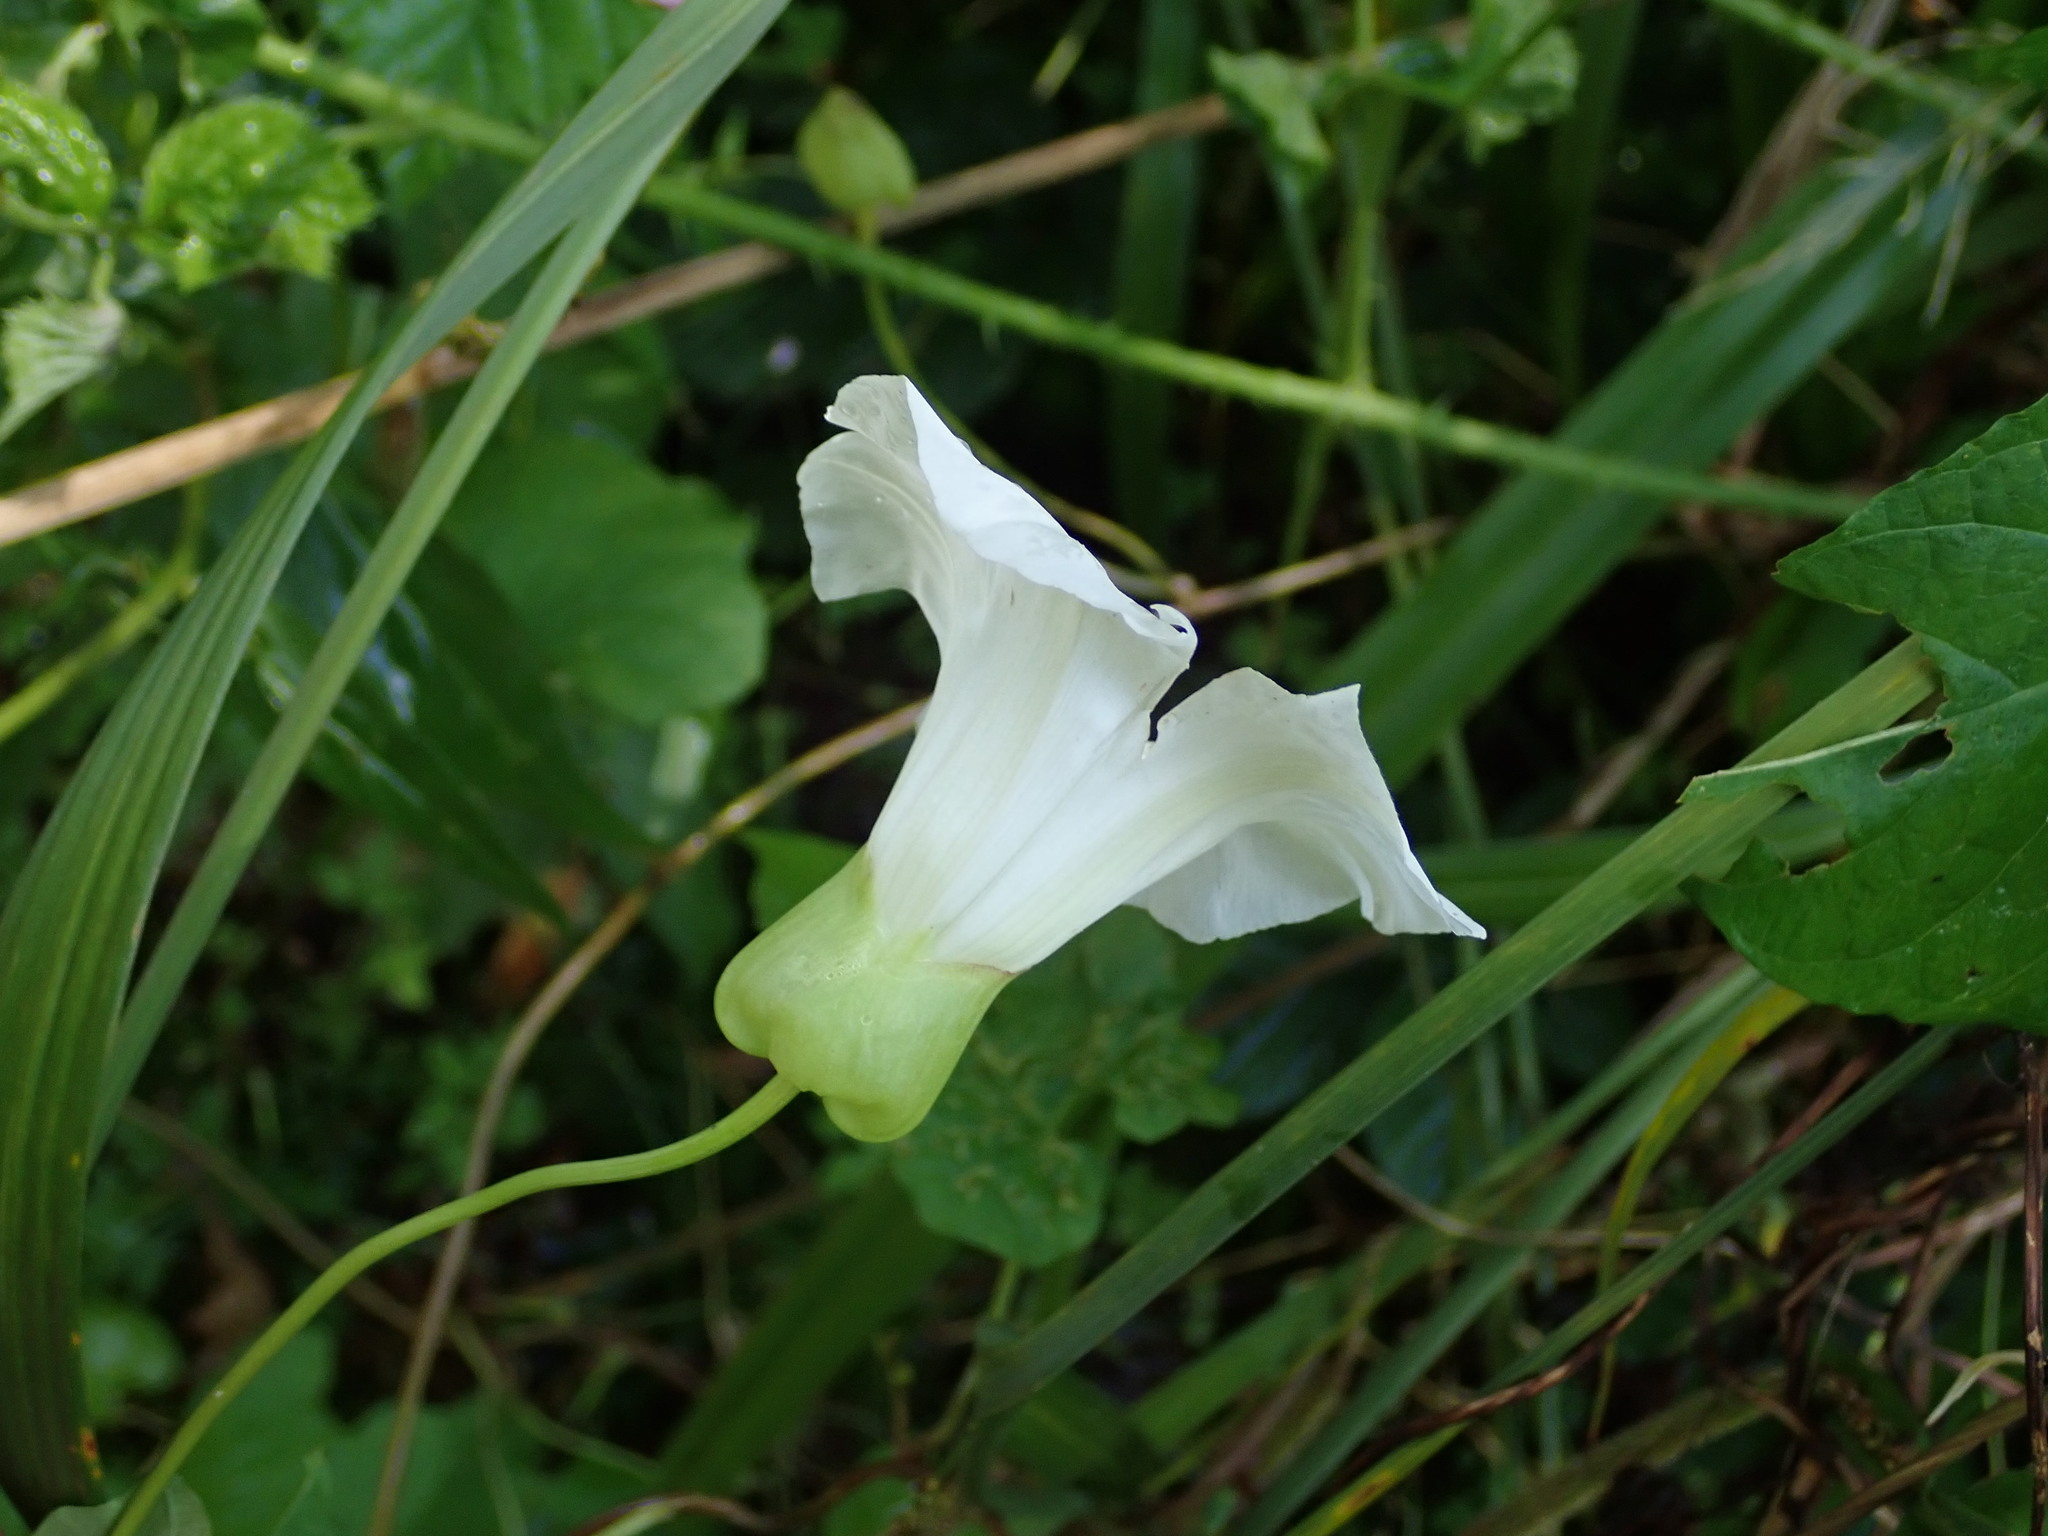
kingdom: Plantae
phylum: Tracheophyta
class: Magnoliopsida
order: Solanales
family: Convolvulaceae
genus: Calystegia
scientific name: Calystegia silvatica
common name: Large bindweed
